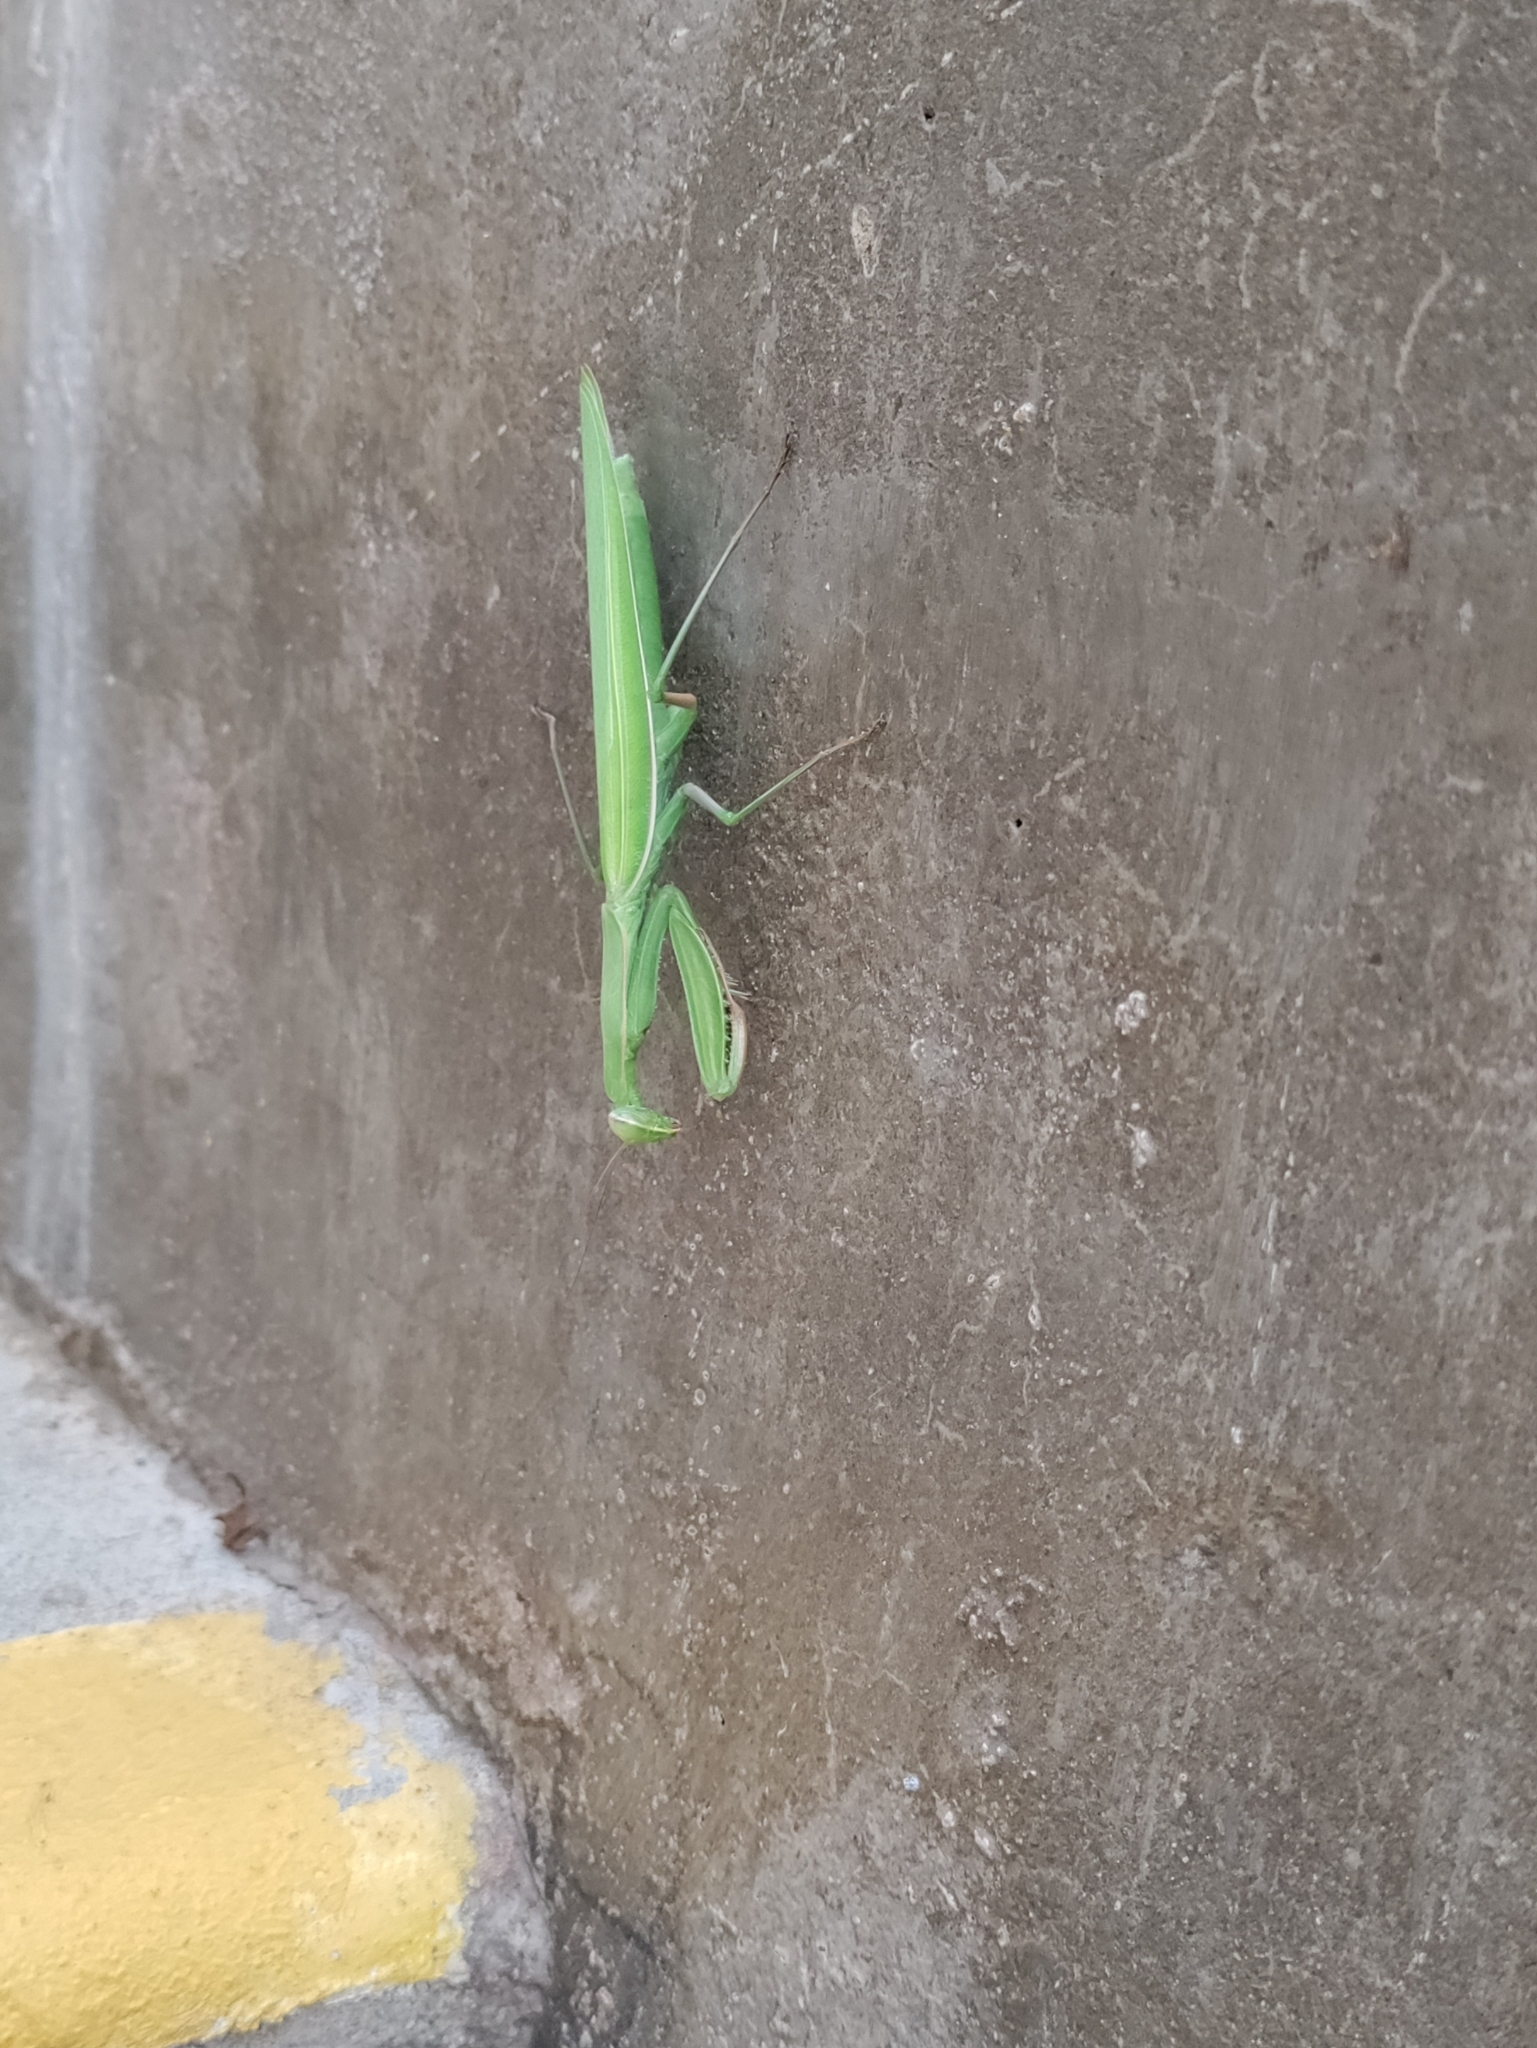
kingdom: Animalia
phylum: Arthropoda
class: Insecta
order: Mantodea
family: Mantidae
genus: Mantis
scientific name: Mantis religiosa
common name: Praying mantis
